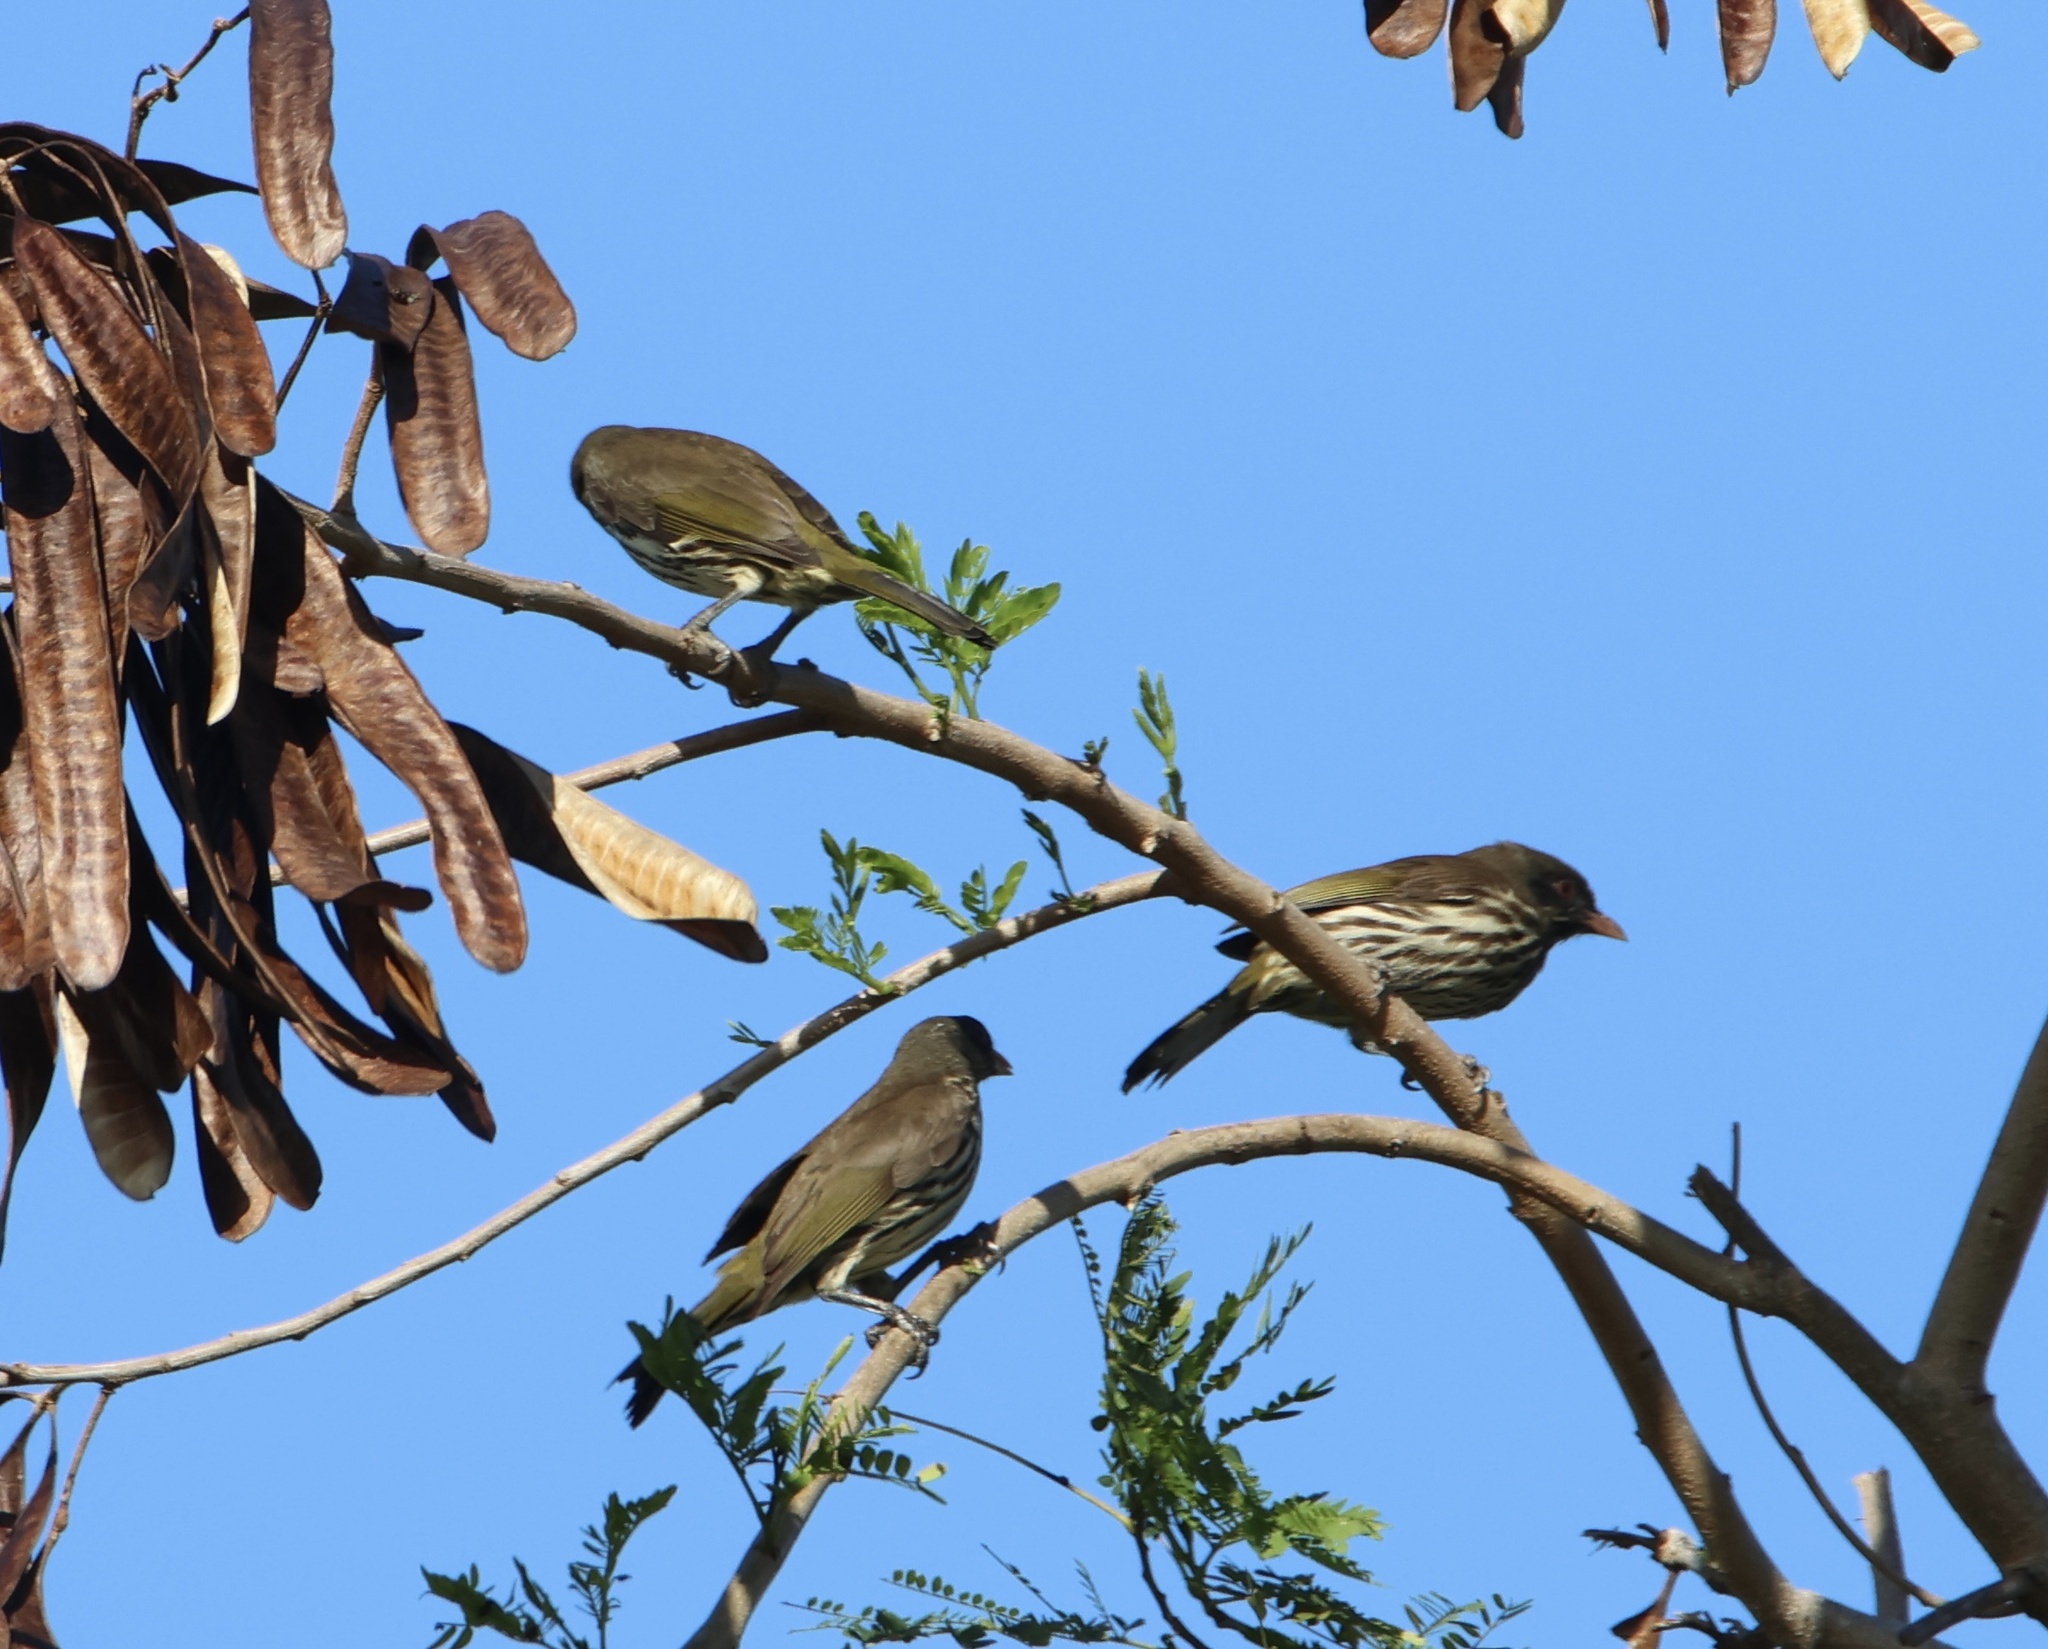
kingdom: Animalia
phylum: Chordata
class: Aves
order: Passeriformes
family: Dulidae
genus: Dulus
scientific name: Dulus dominicus
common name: Palmchat
